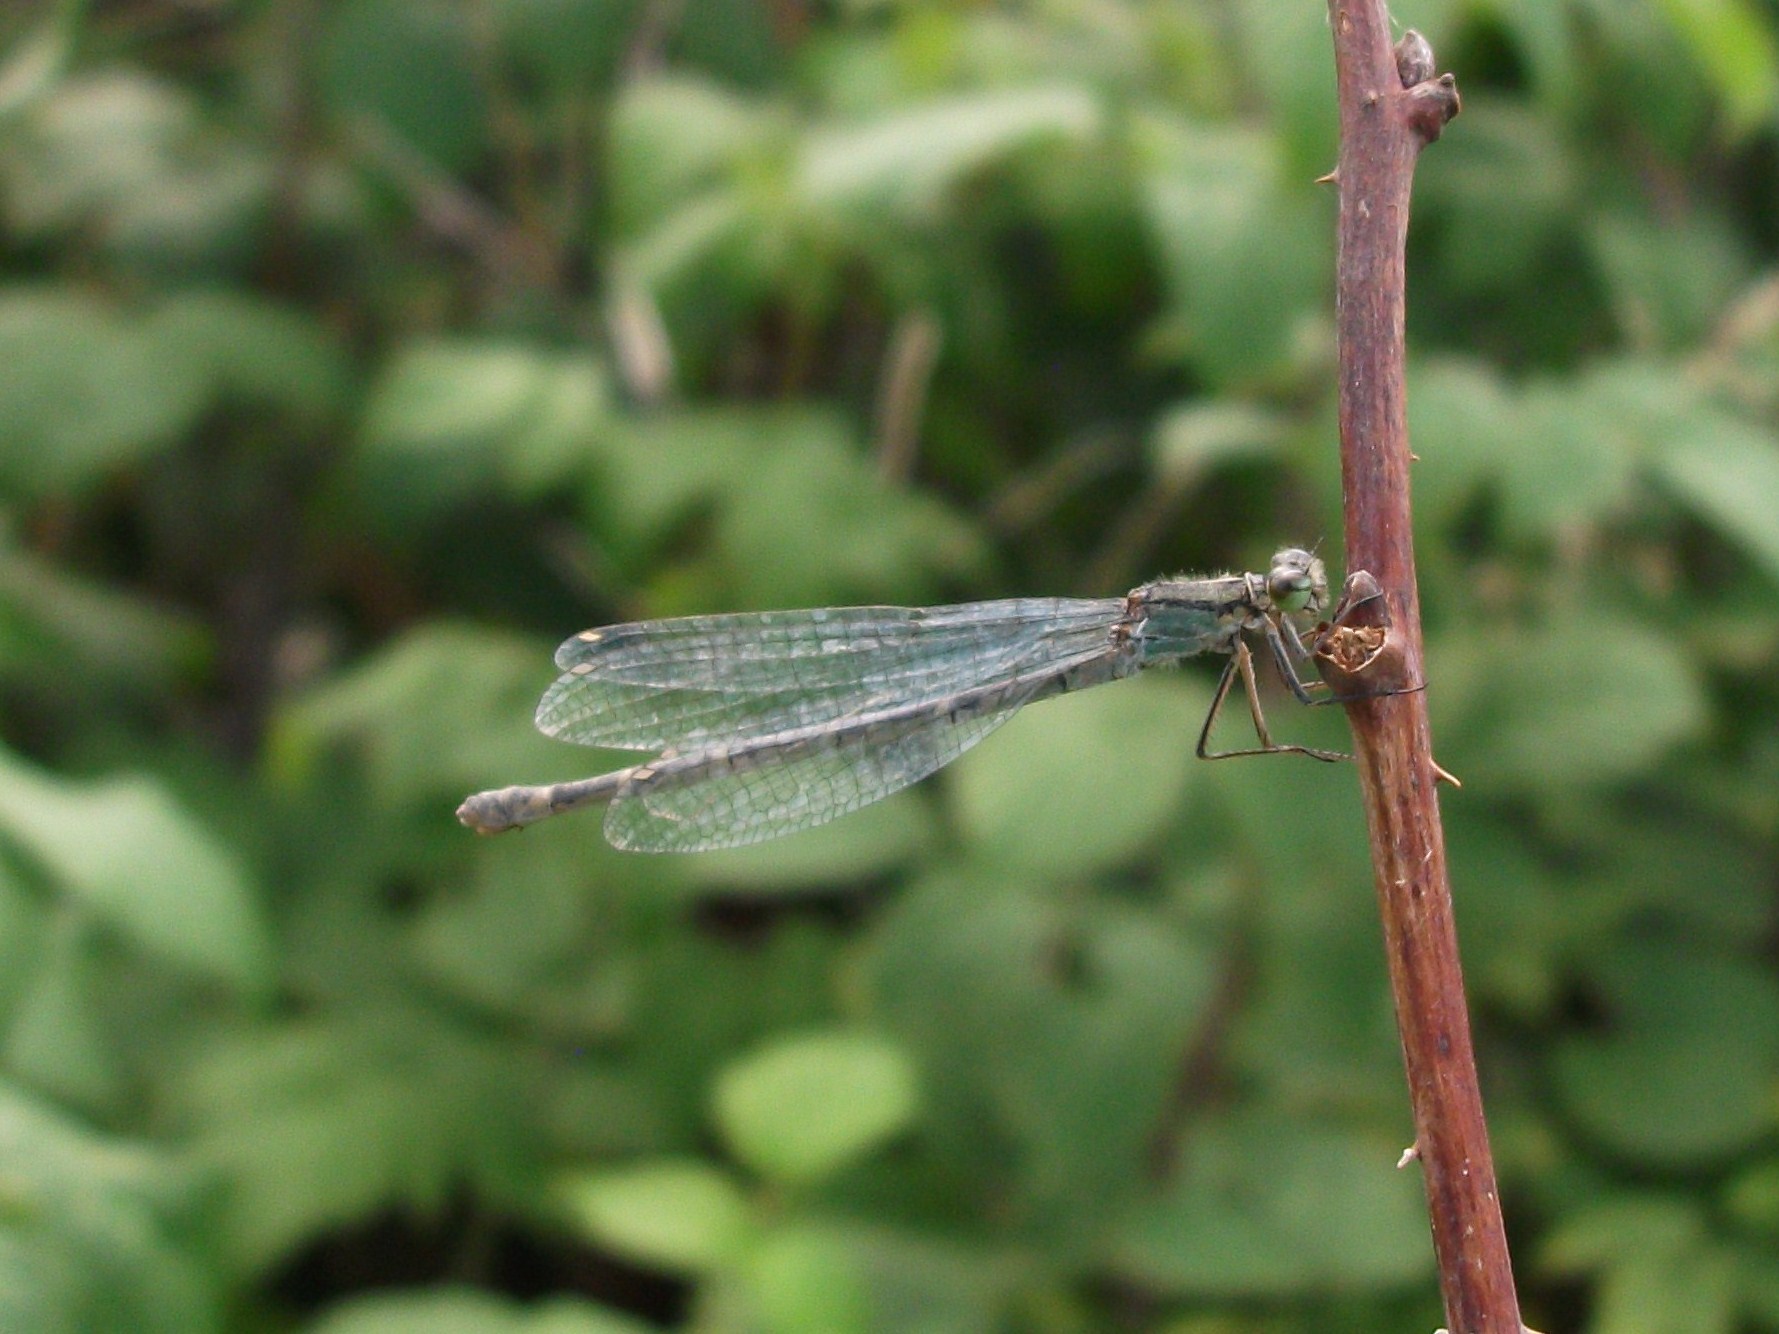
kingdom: Animalia
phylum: Arthropoda
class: Insecta
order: Odonata
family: Coenagrionidae
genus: Enallagma
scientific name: Enallagma cyathigerum
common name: Common blue damselfly
